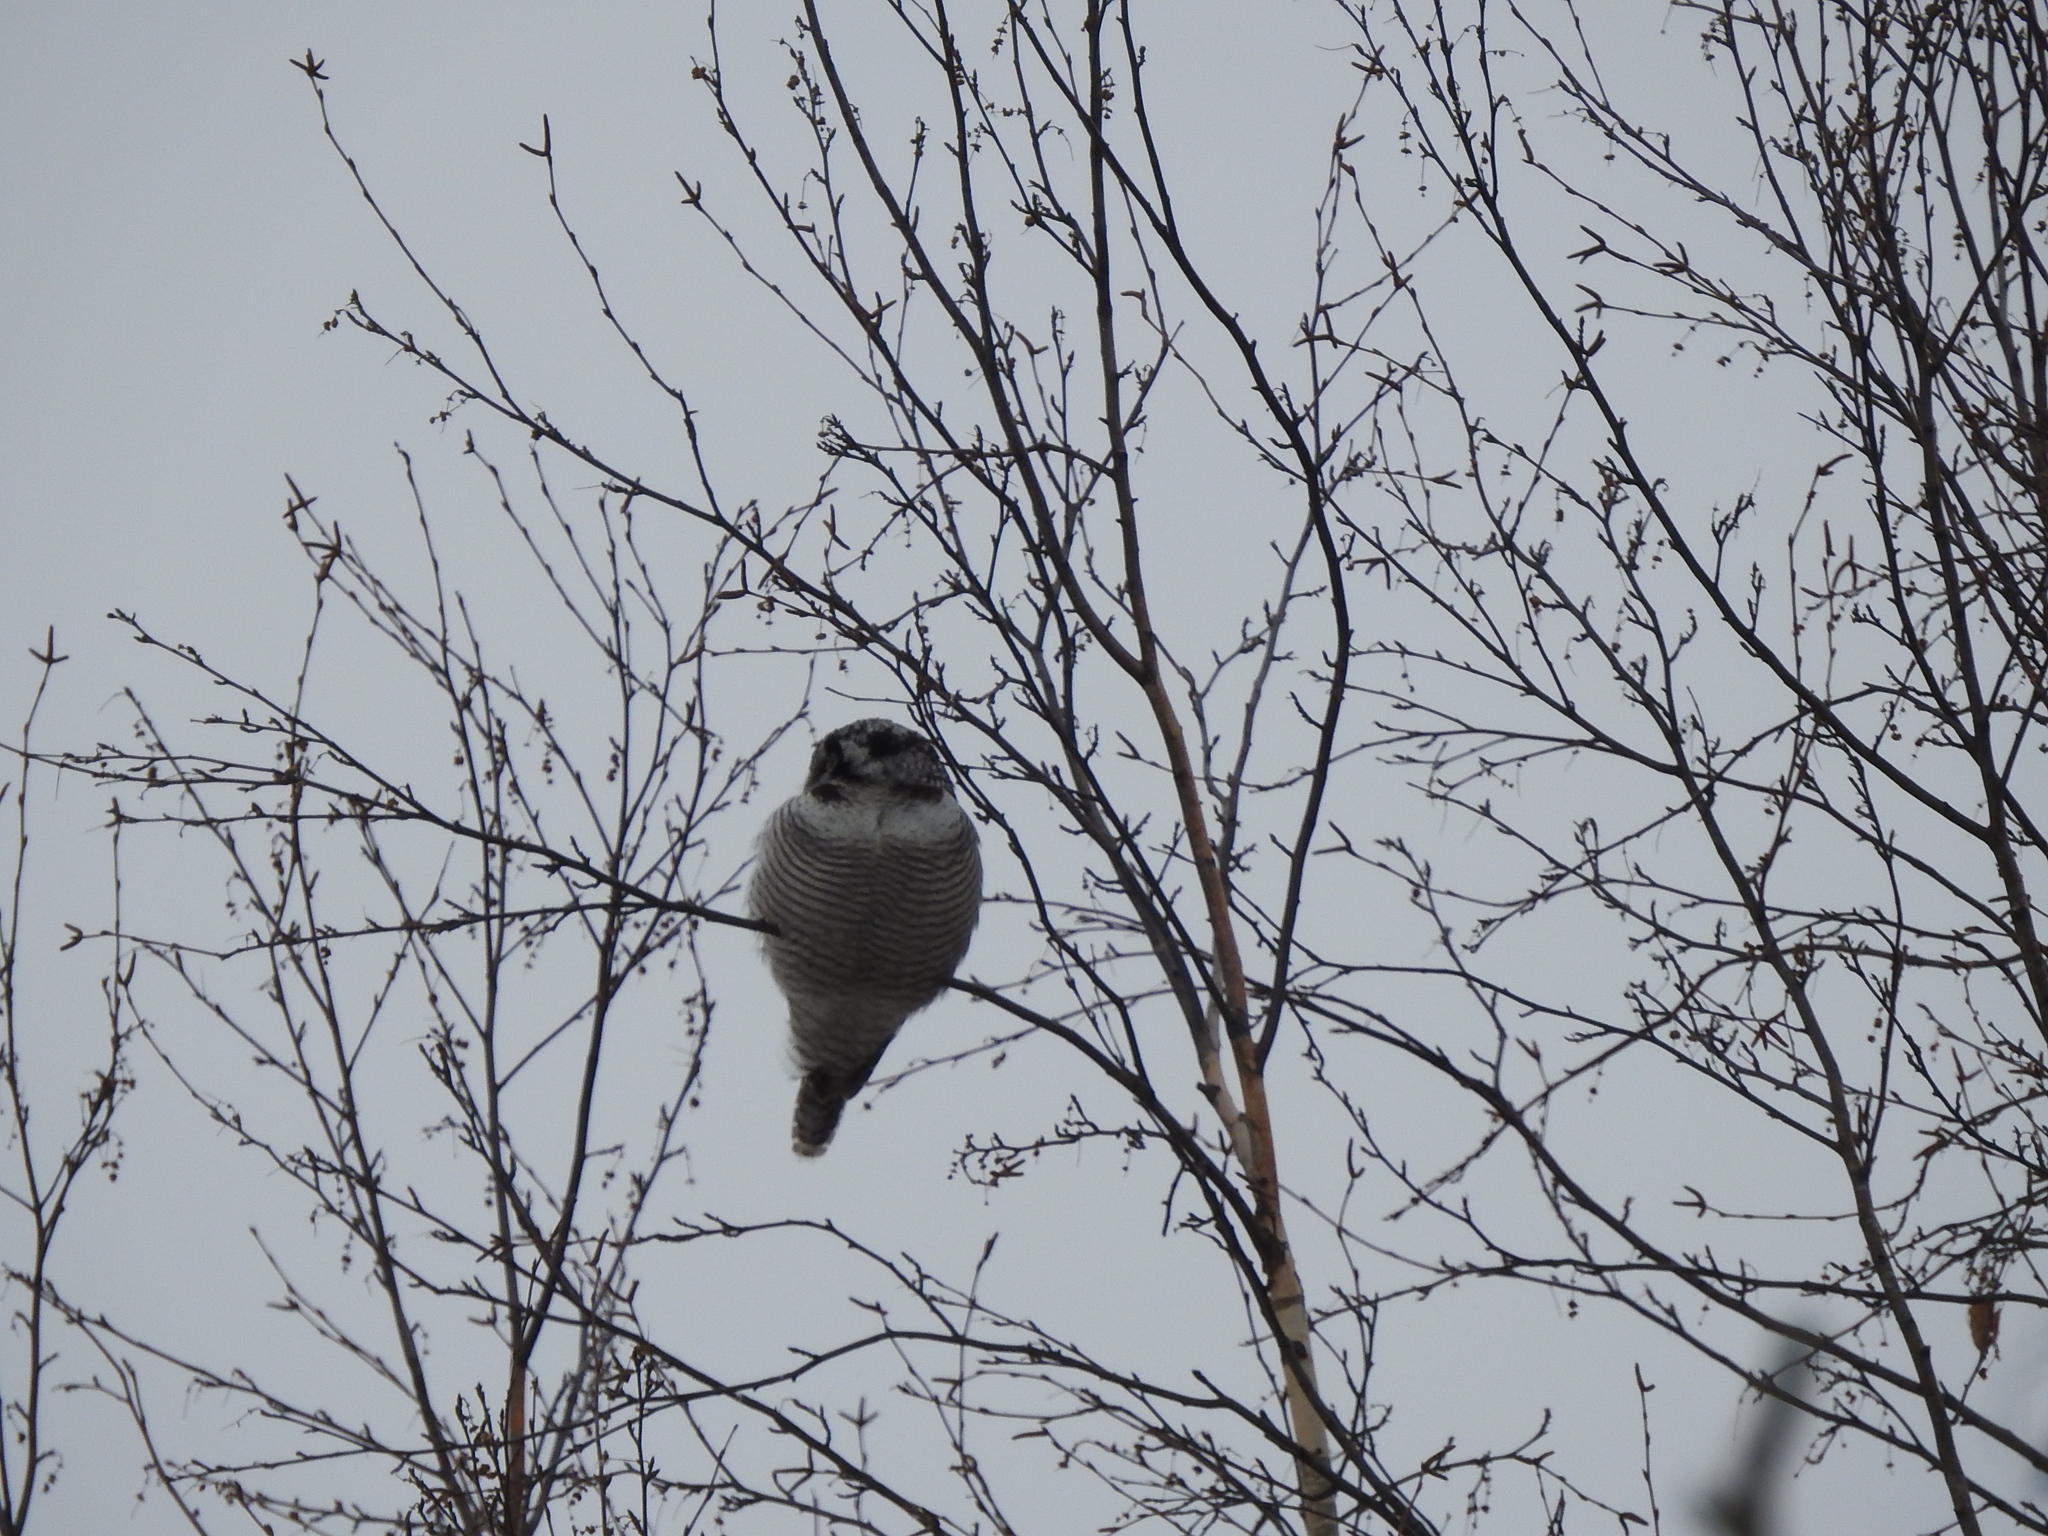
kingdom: Animalia
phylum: Chordata
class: Aves
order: Strigiformes
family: Strigidae
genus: Surnia
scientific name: Surnia ulula
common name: Northern hawk-owl
